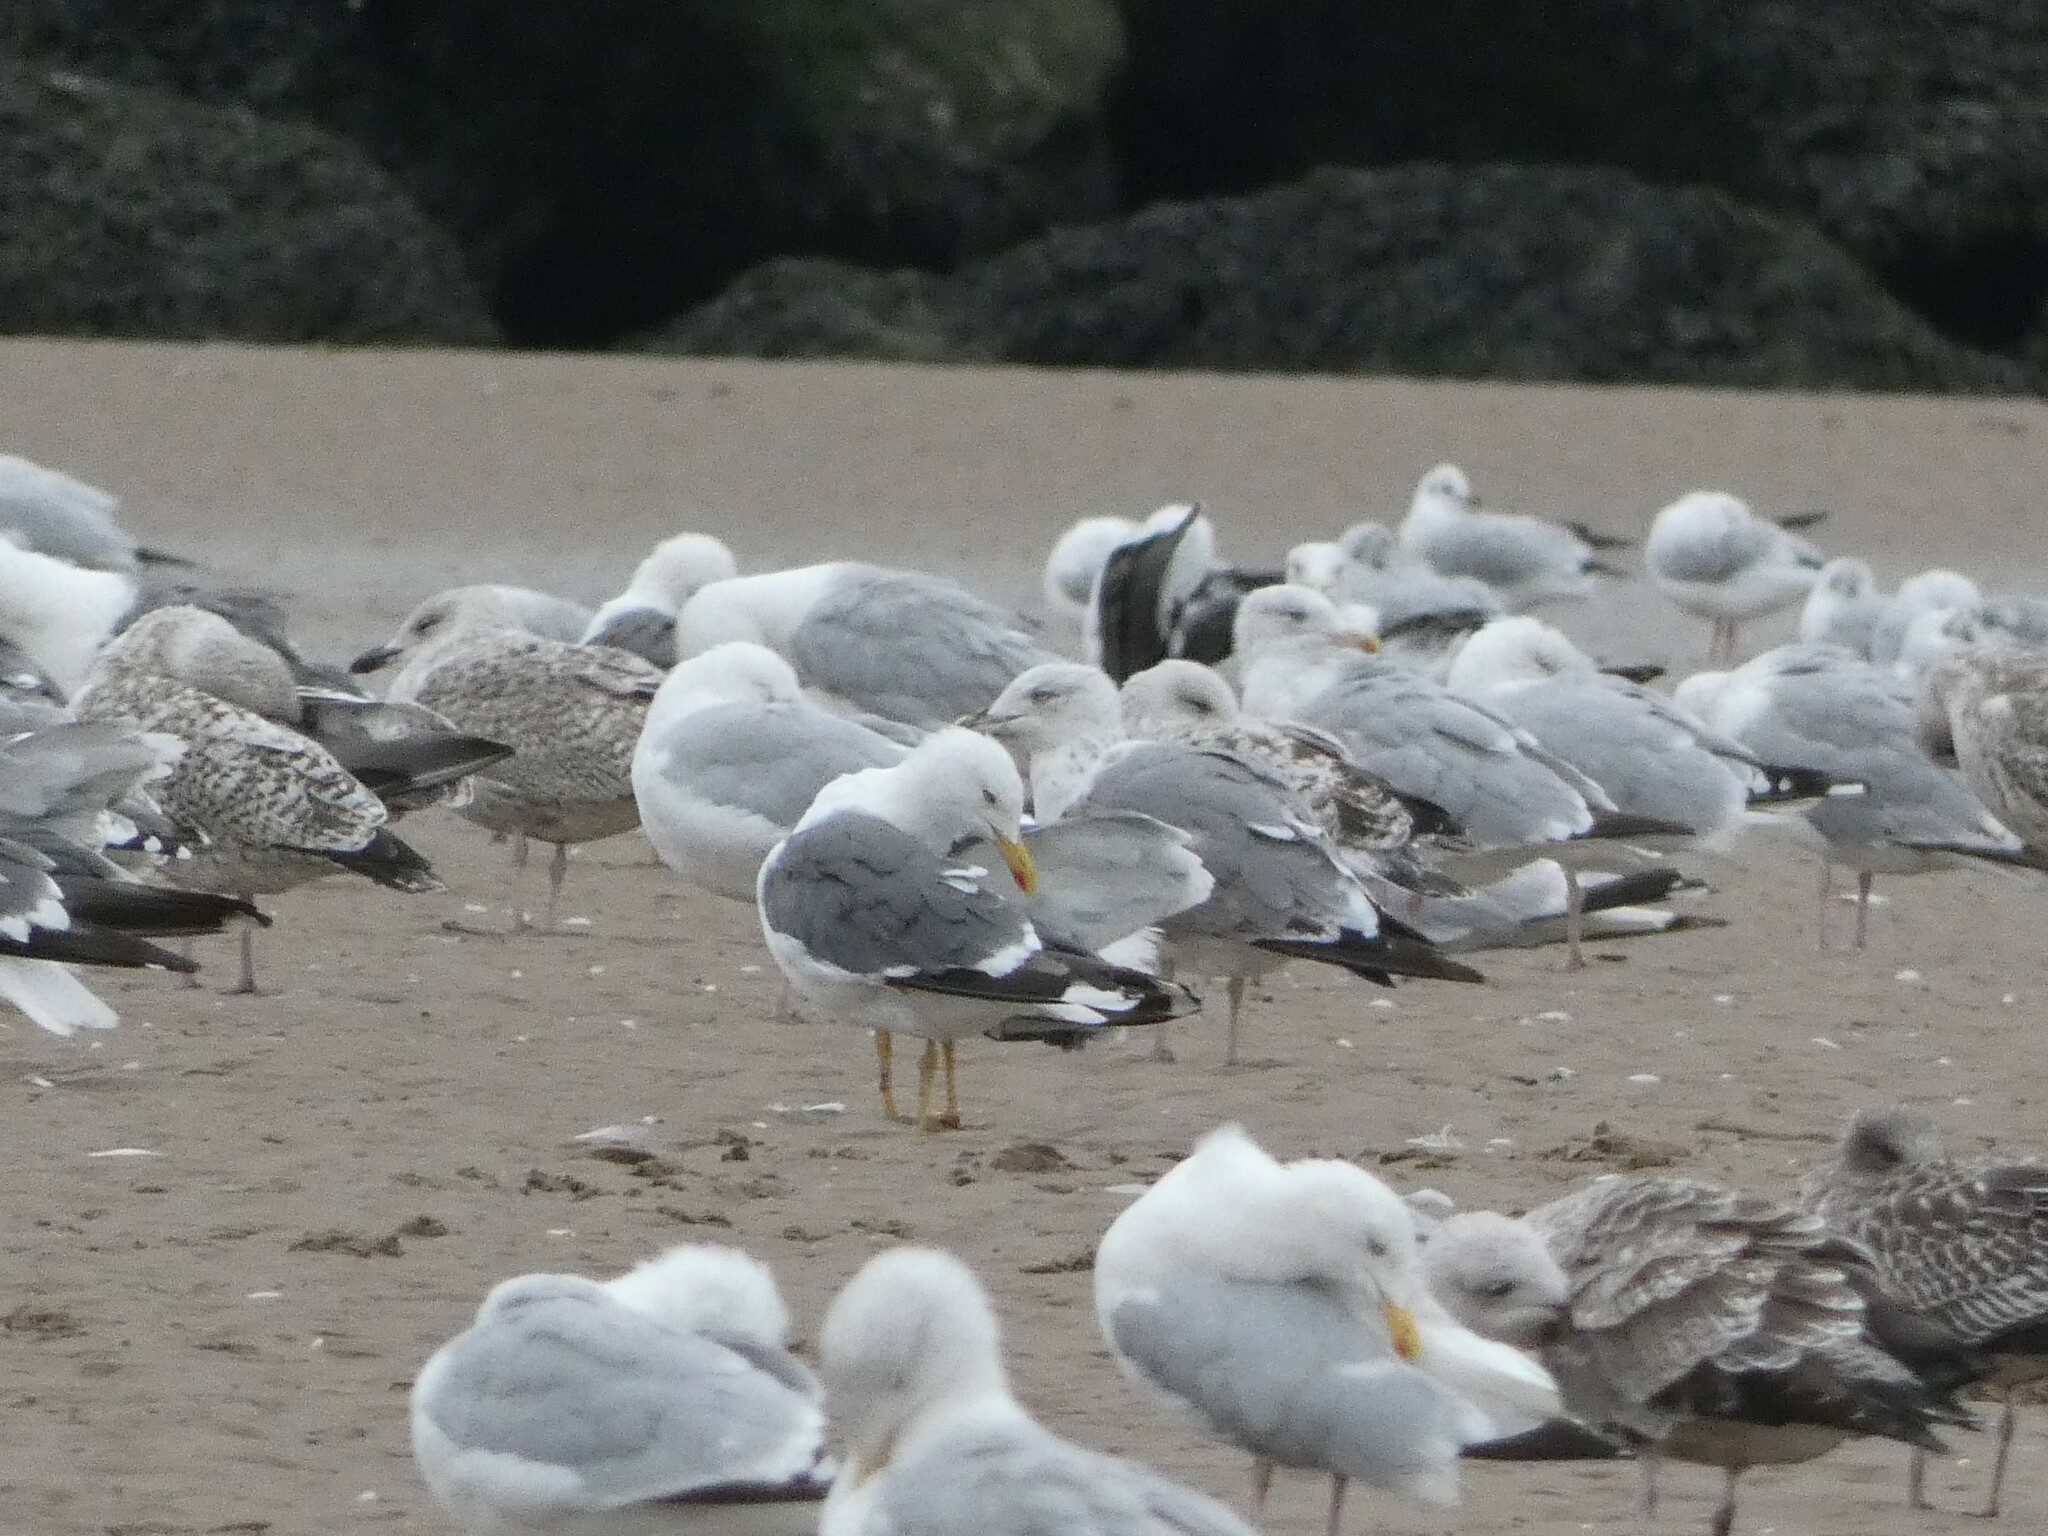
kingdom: Animalia
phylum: Chordata
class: Aves
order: Charadriiformes
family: Laridae
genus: Larus
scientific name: Larus michahellis
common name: Yellow-legged gull
